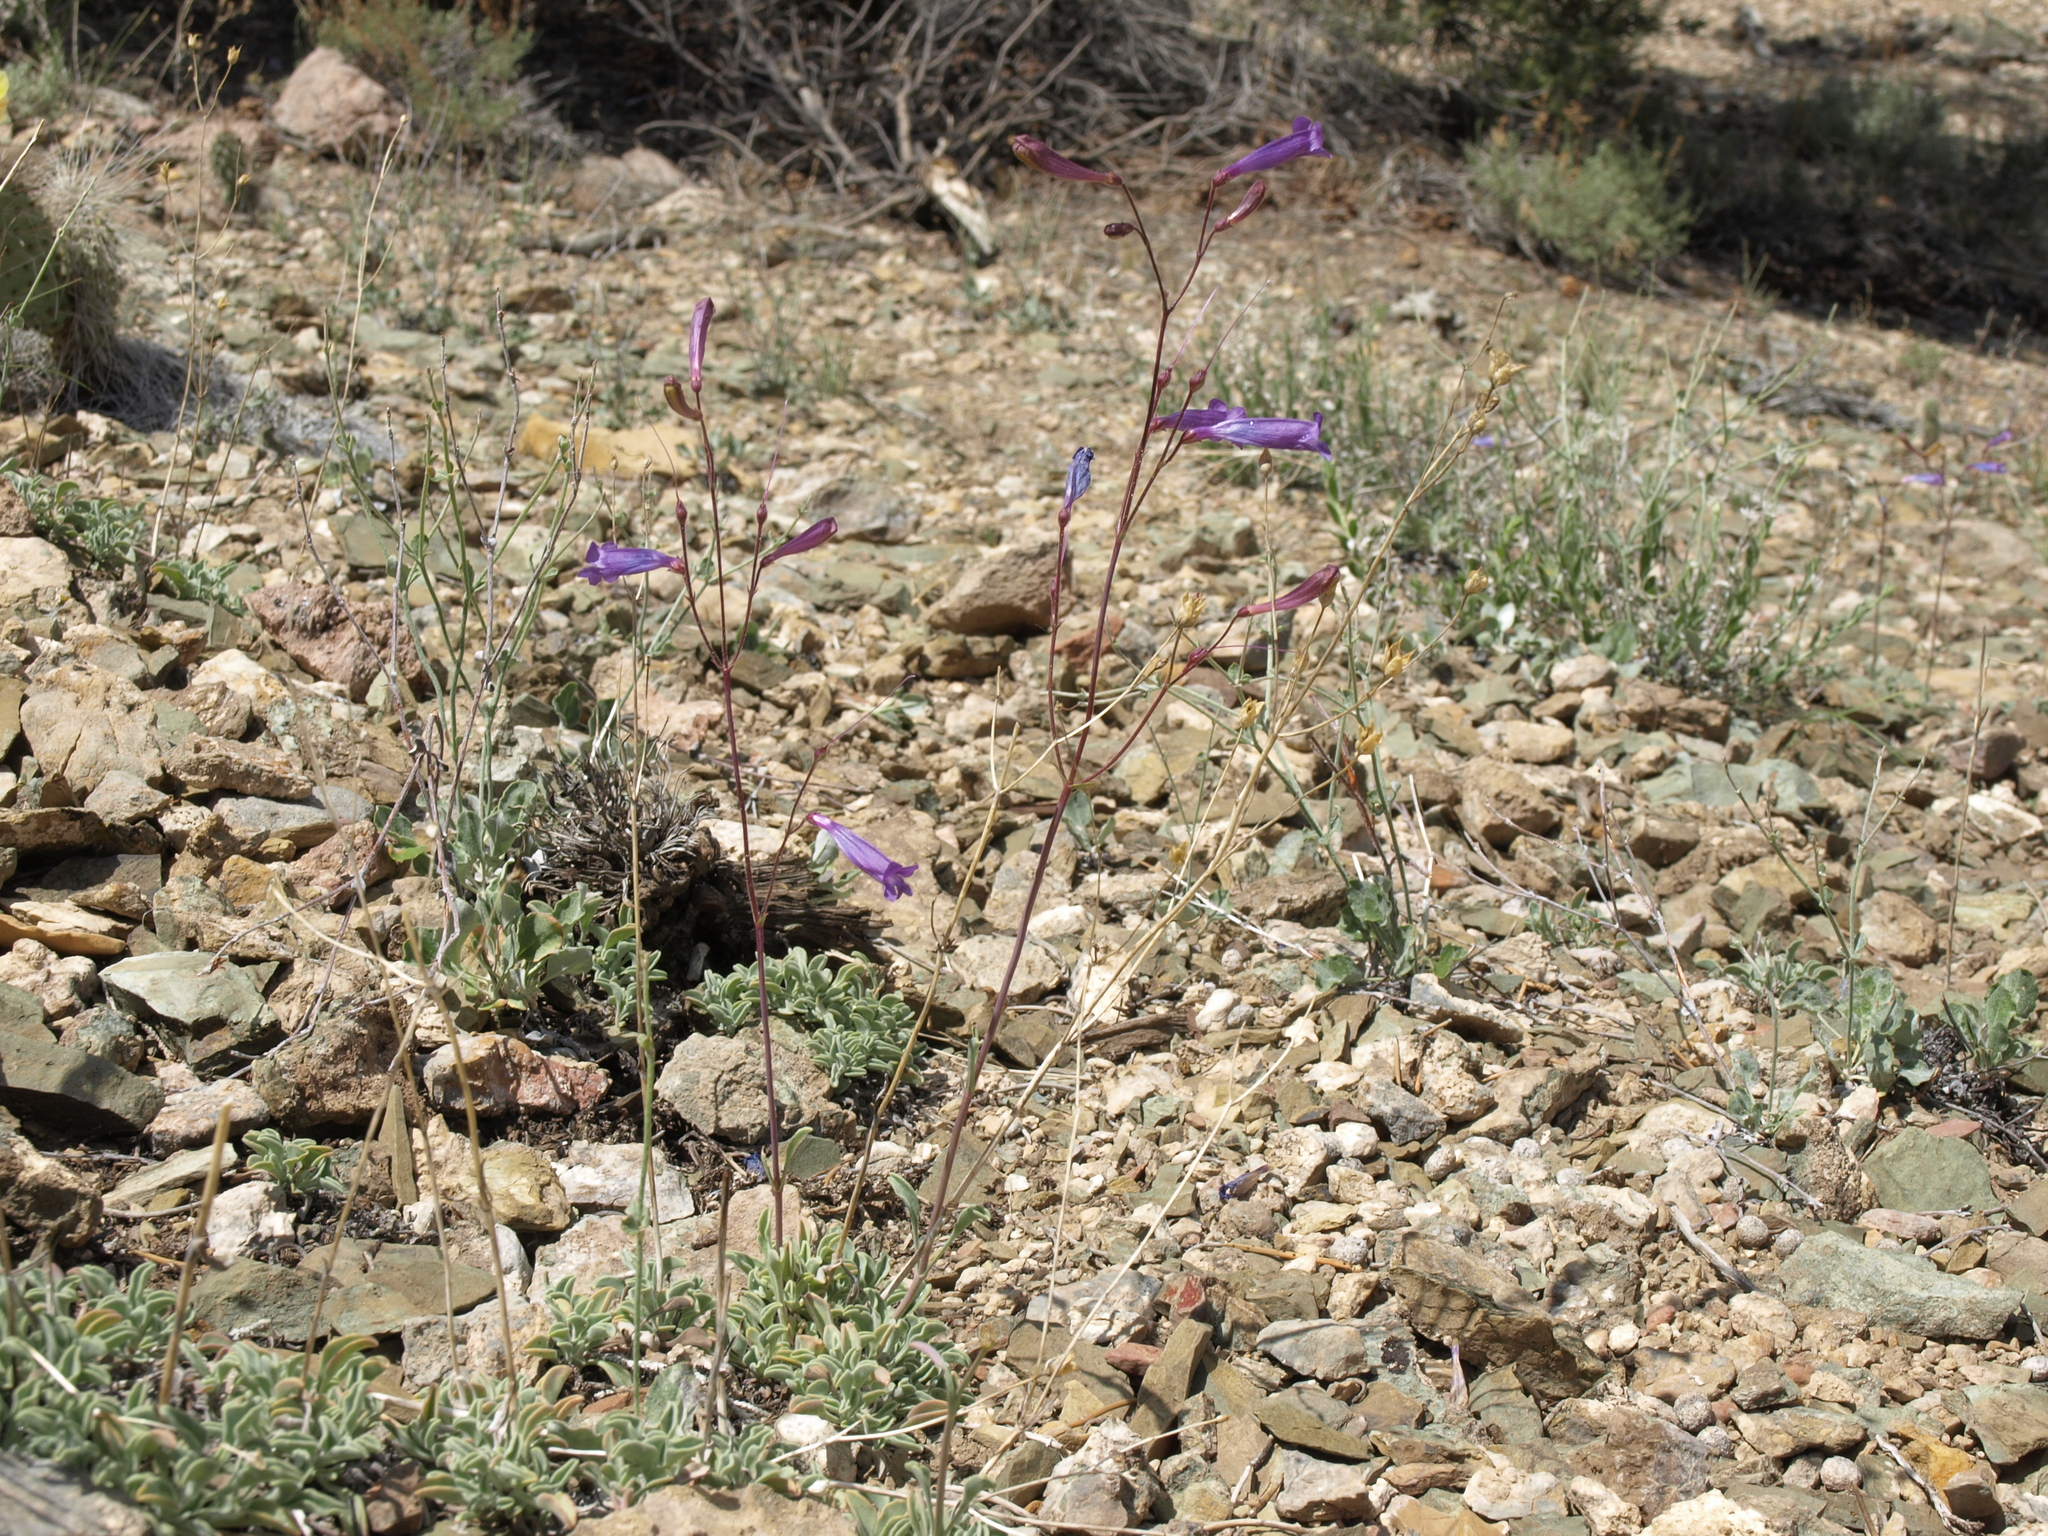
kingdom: Plantae
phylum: Tracheophyta
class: Magnoliopsida
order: Lamiales
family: Plantaginaceae
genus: Penstemon
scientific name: Penstemon scapoides
